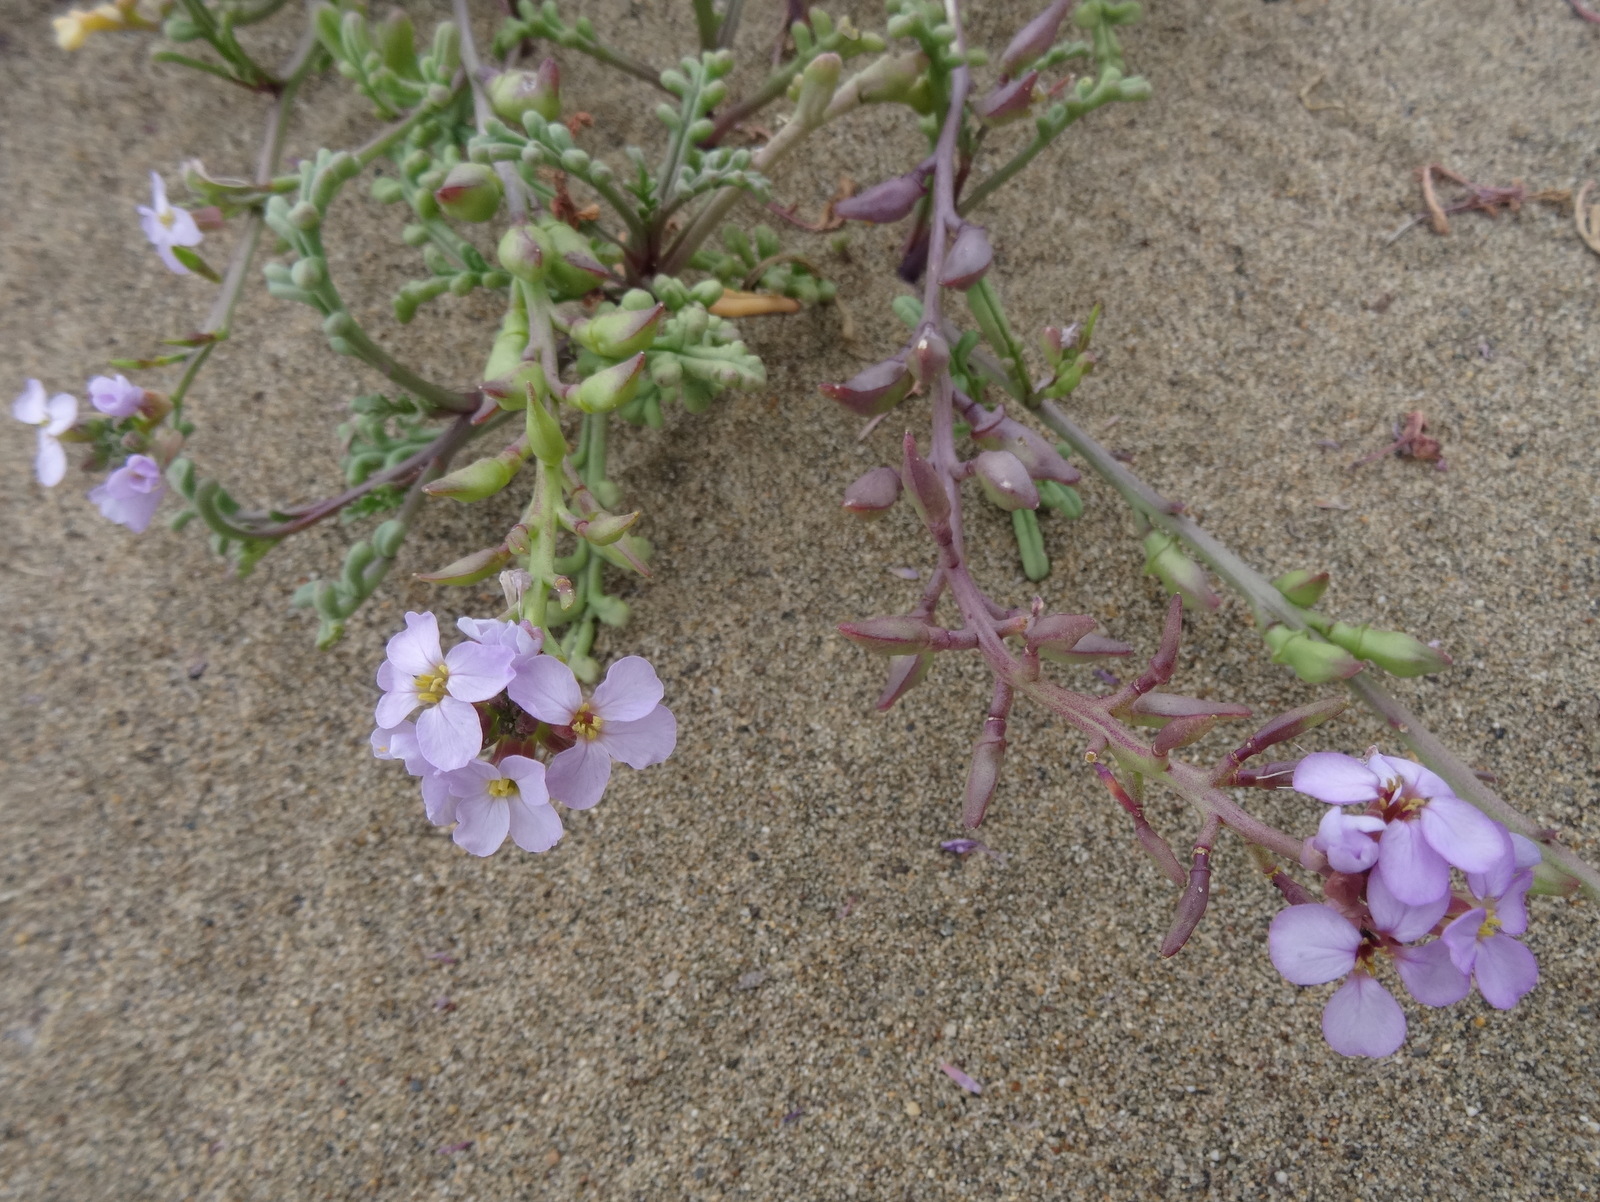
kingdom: Plantae
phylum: Tracheophyta
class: Magnoliopsida
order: Brassicales
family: Brassicaceae
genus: Cakile
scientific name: Cakile maritima
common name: Sea rocket
